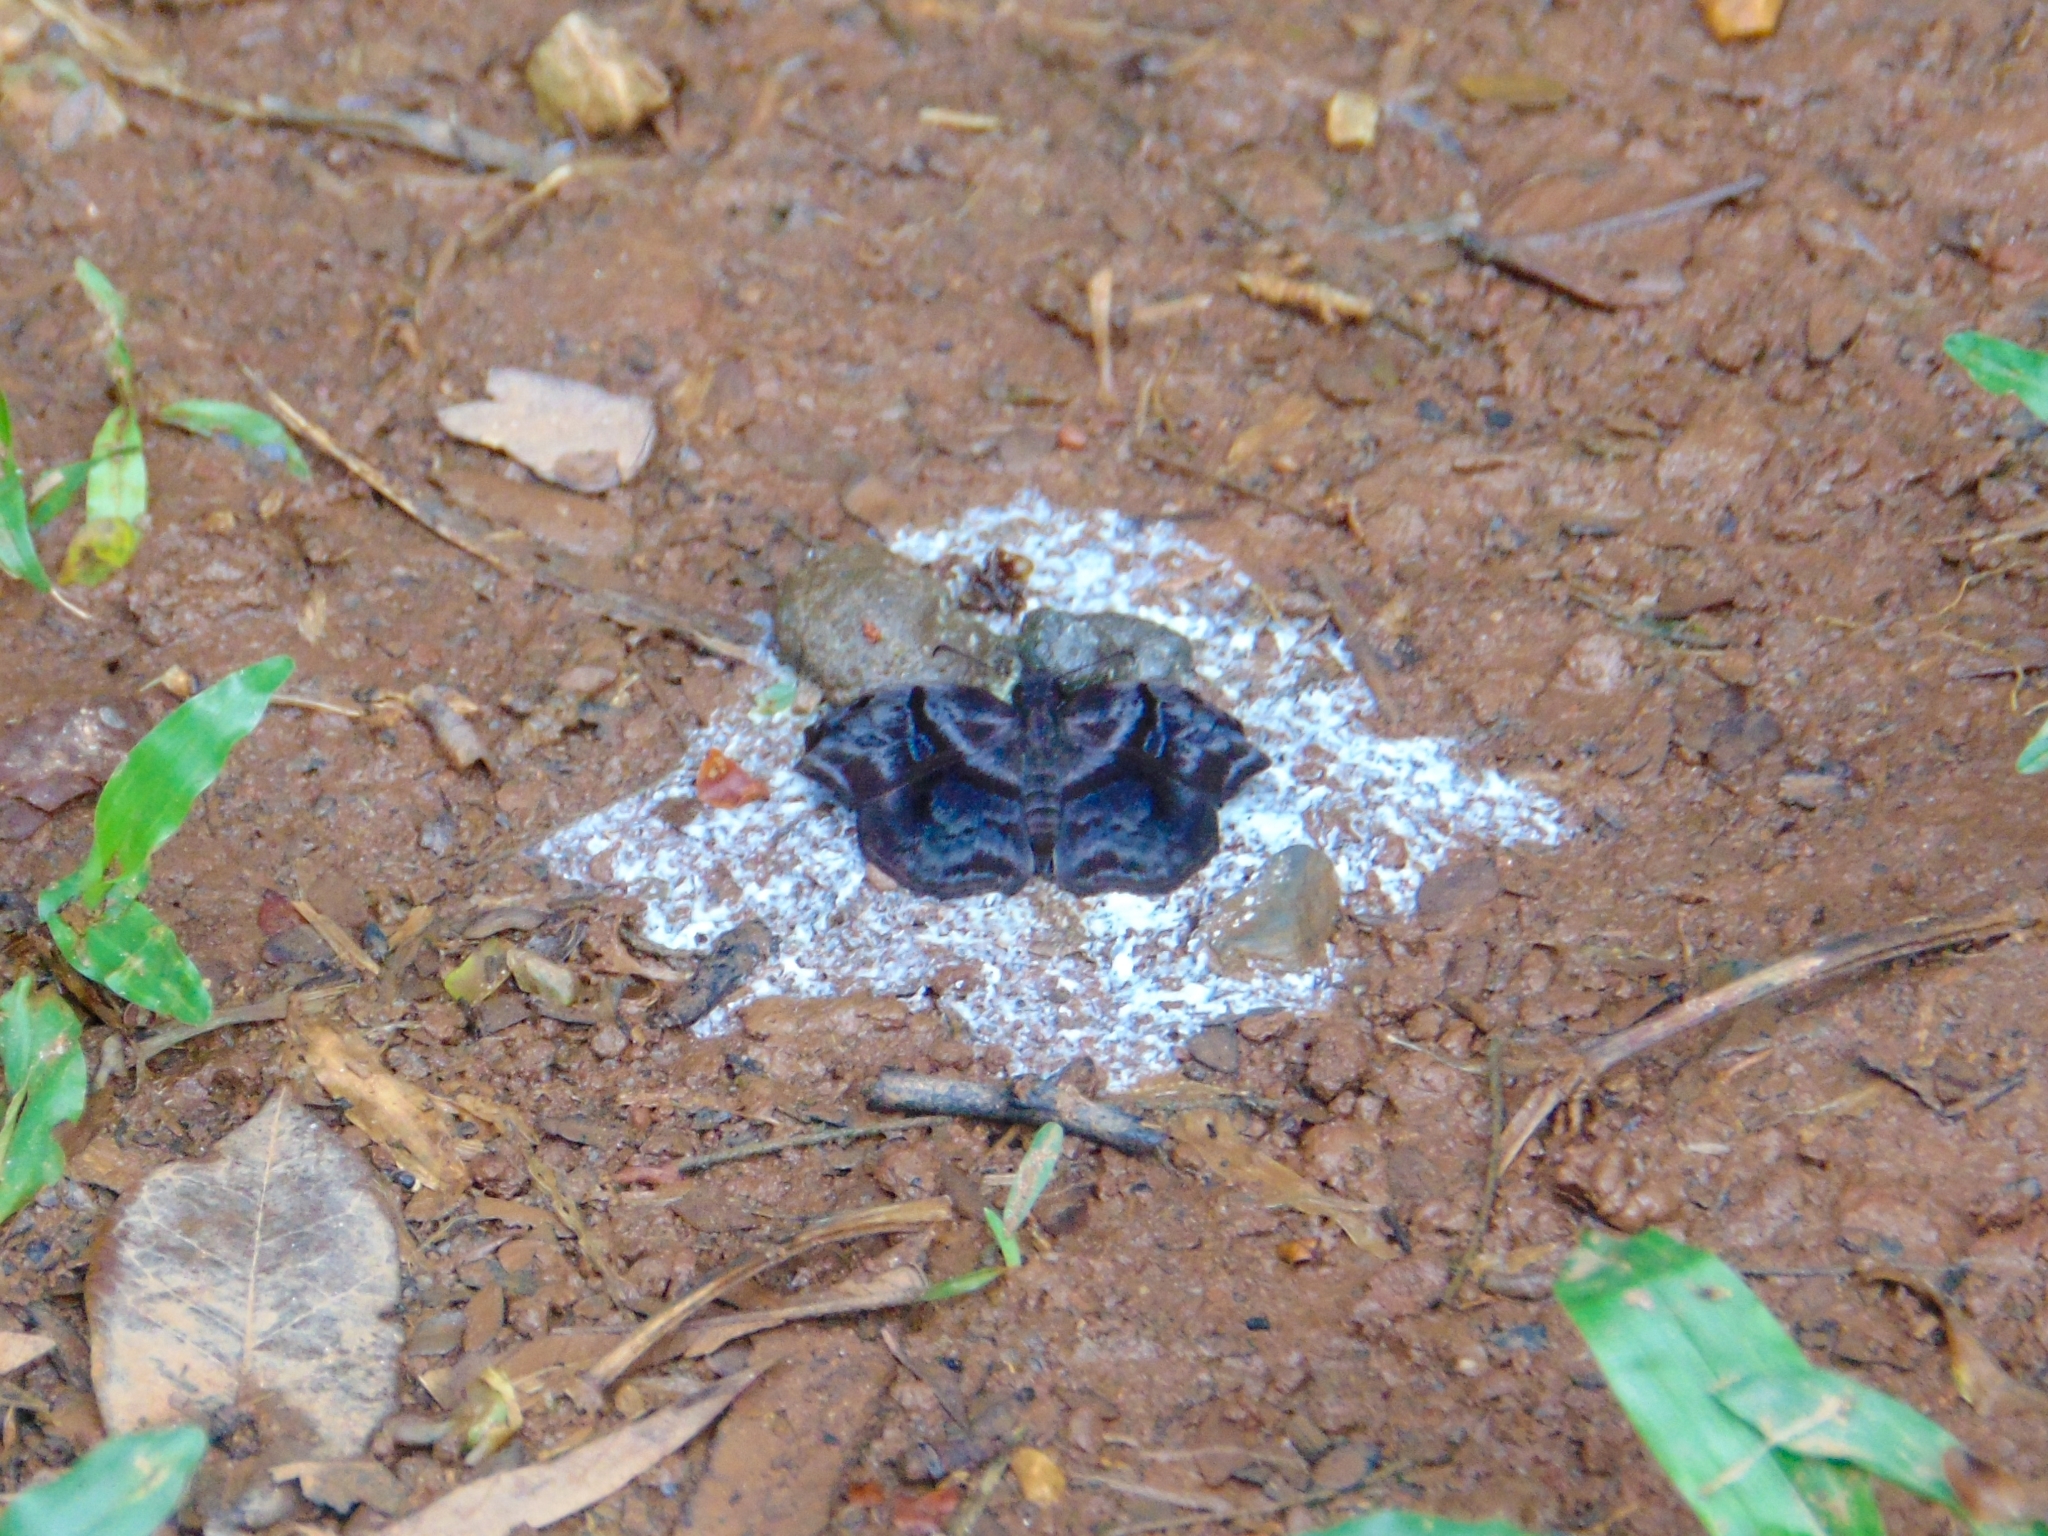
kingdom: Animalia
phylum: Arthropoda
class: Insecta
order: Lepidoptera
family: Hesperiidae
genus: Helias
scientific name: Helias phalaenoides
